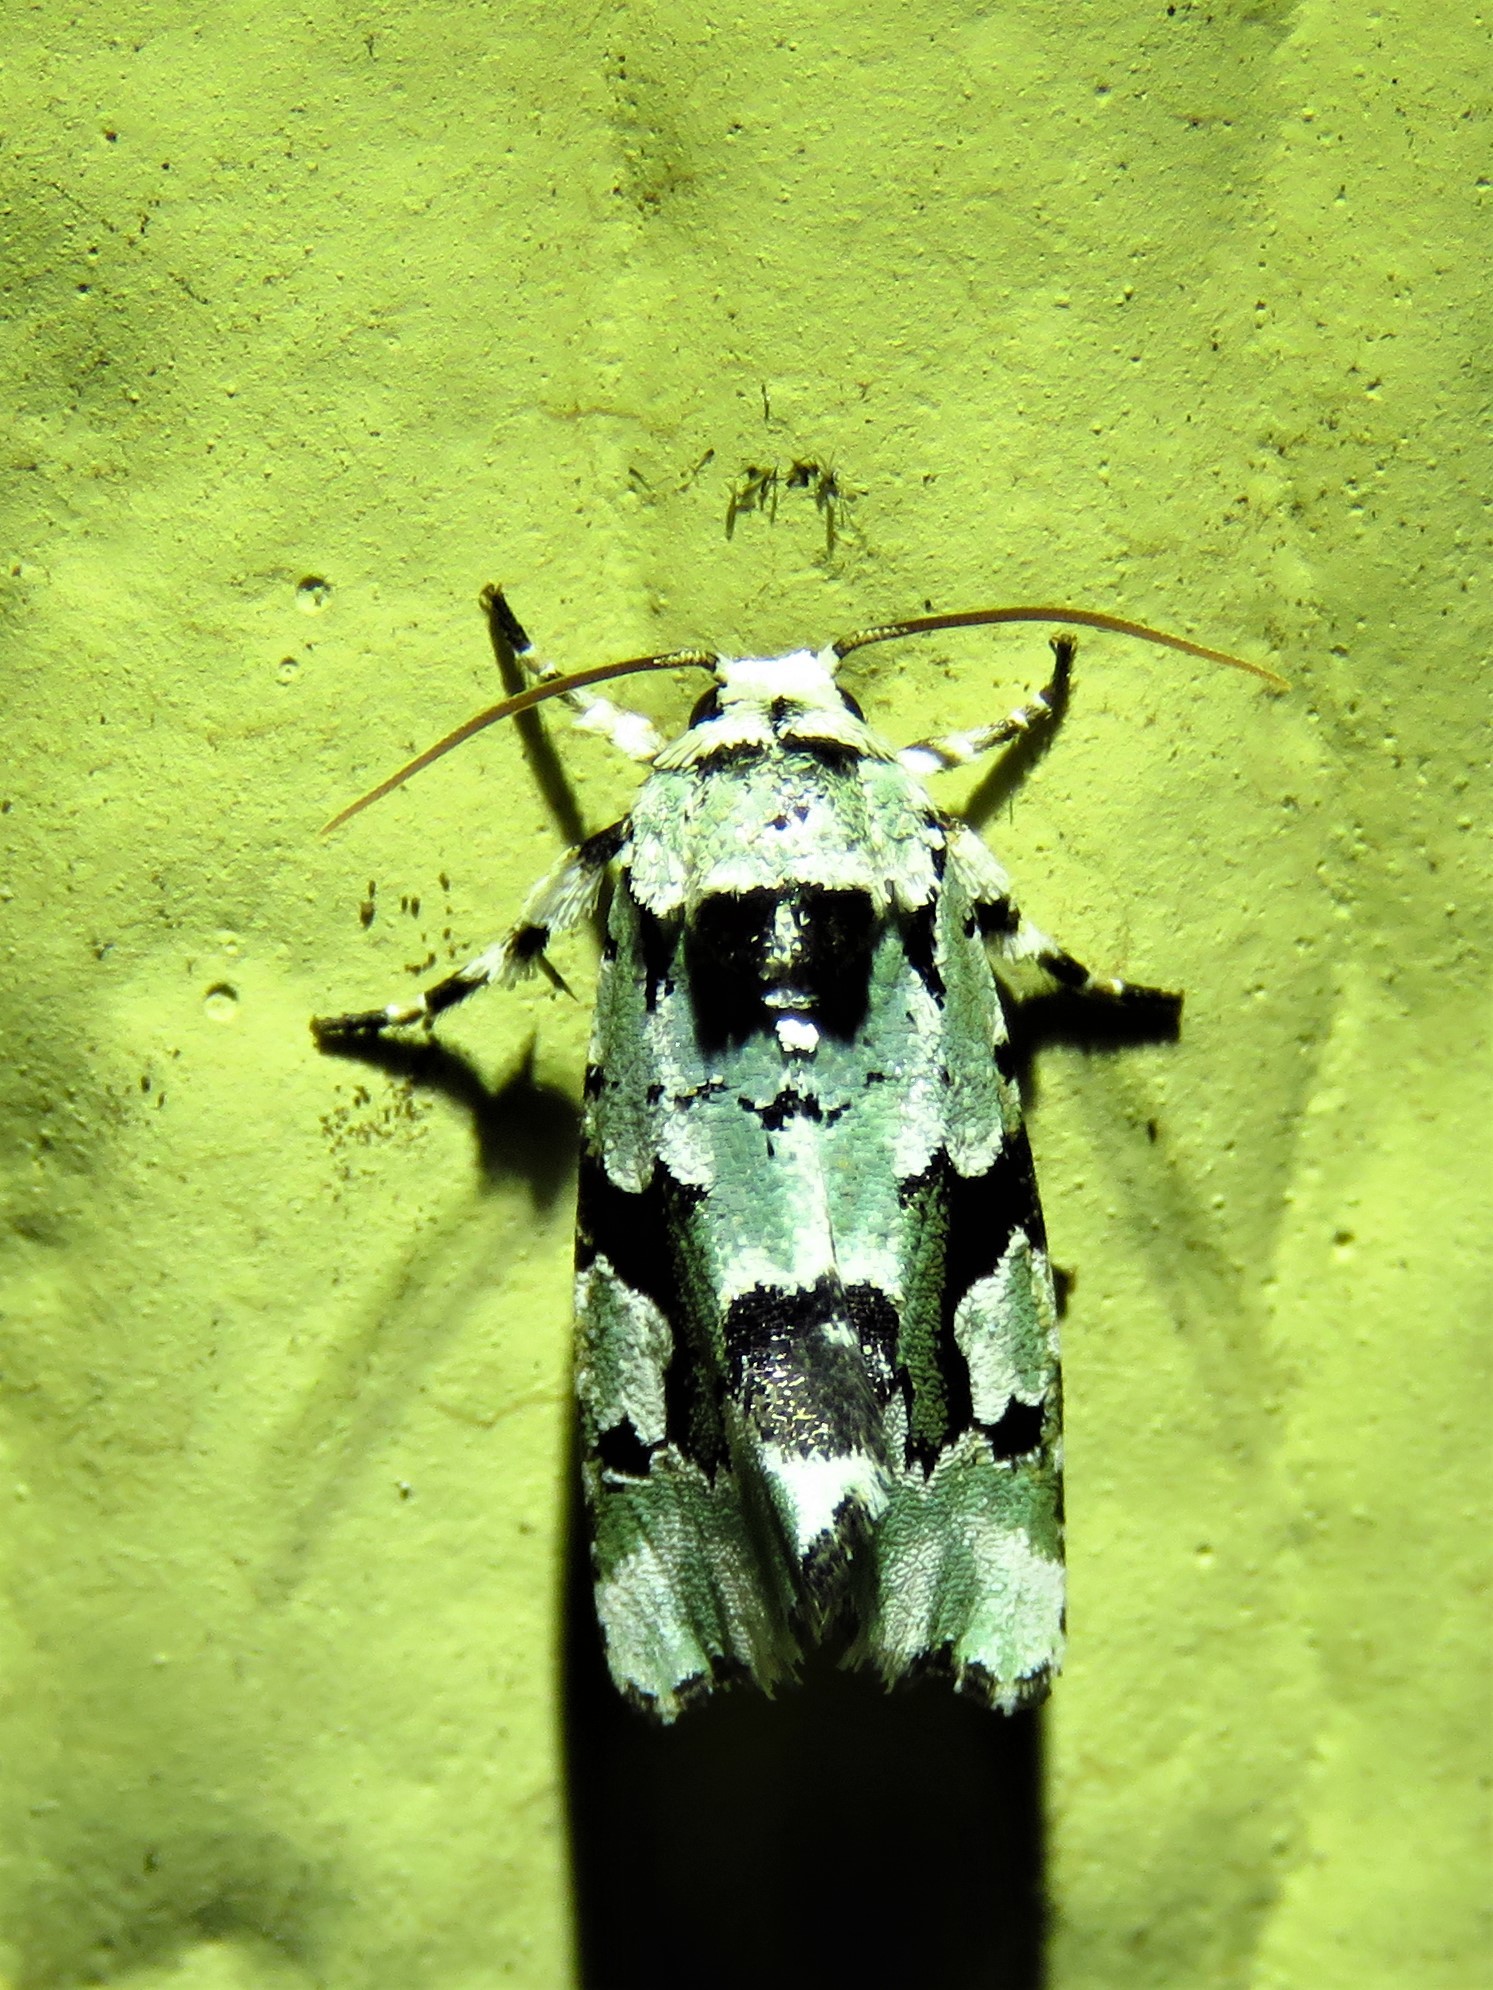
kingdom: Animalia
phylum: Arthropoda
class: Insecta
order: Lepidoptera
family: Noctuidae
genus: Emarginea
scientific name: Emarginea percara
